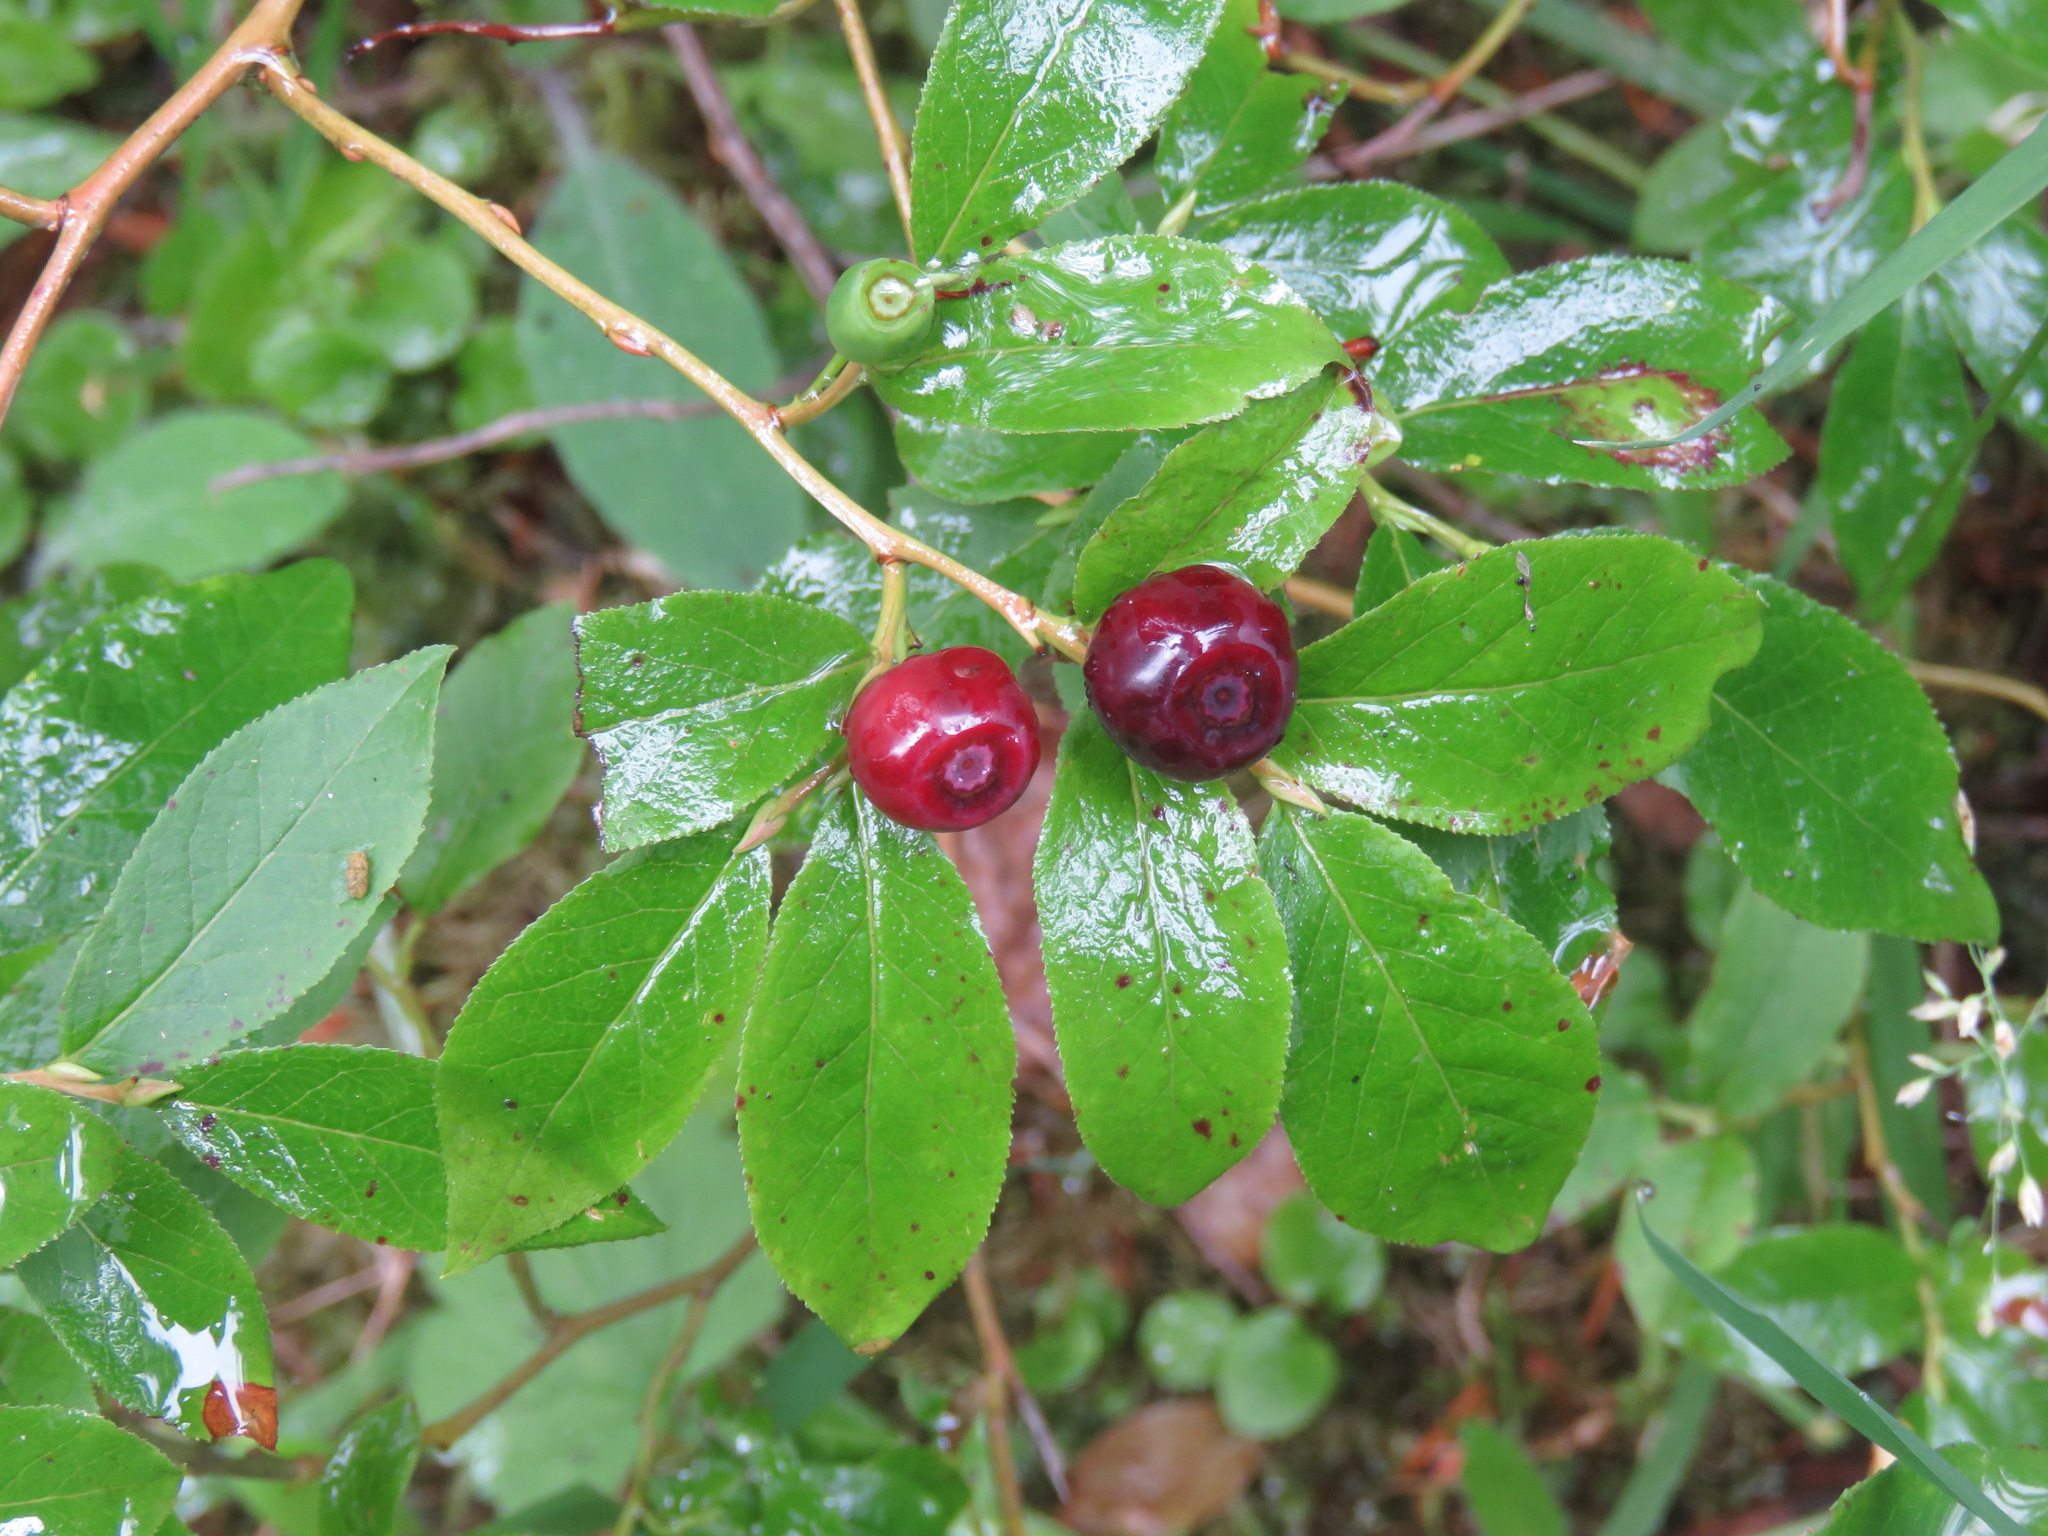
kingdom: Plantae
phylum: Tracheophyta
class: Magnoliopsida
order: Ericales
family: Ericaceae
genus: Vaccinium
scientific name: Vaccinium membranaceum
